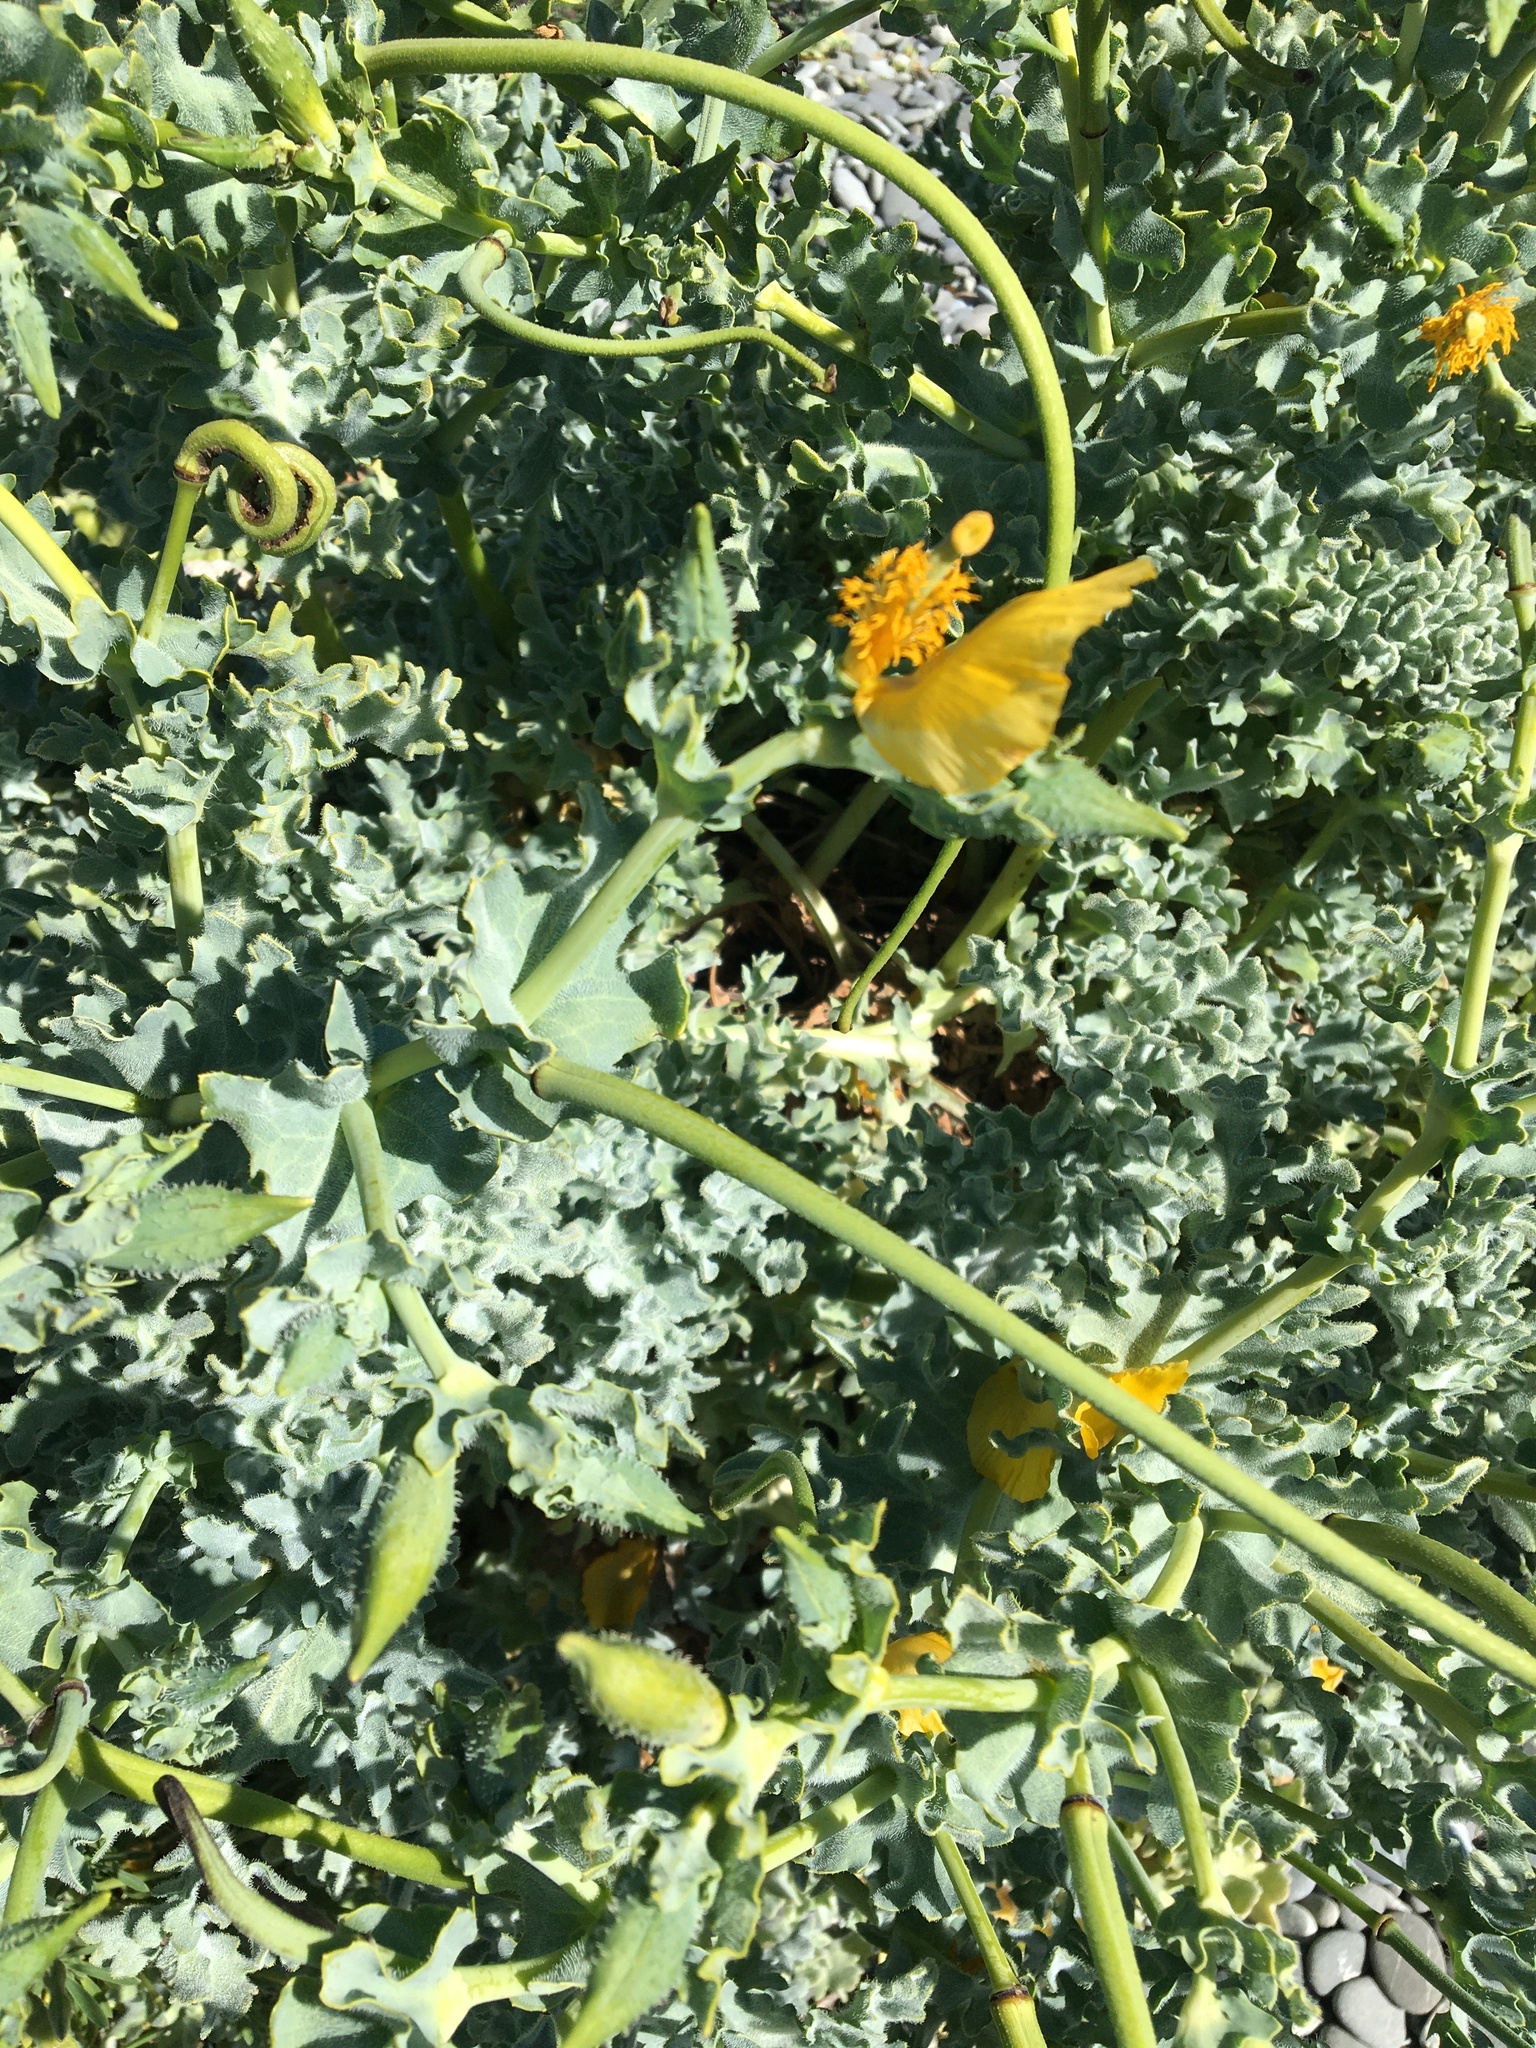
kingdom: Plantae
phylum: Tracheophyta
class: Magnoliopsida
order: Ranunculales
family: Papaveraceae
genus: Glaucium
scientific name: Glaucium flavum
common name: Yellow horned-poppy
